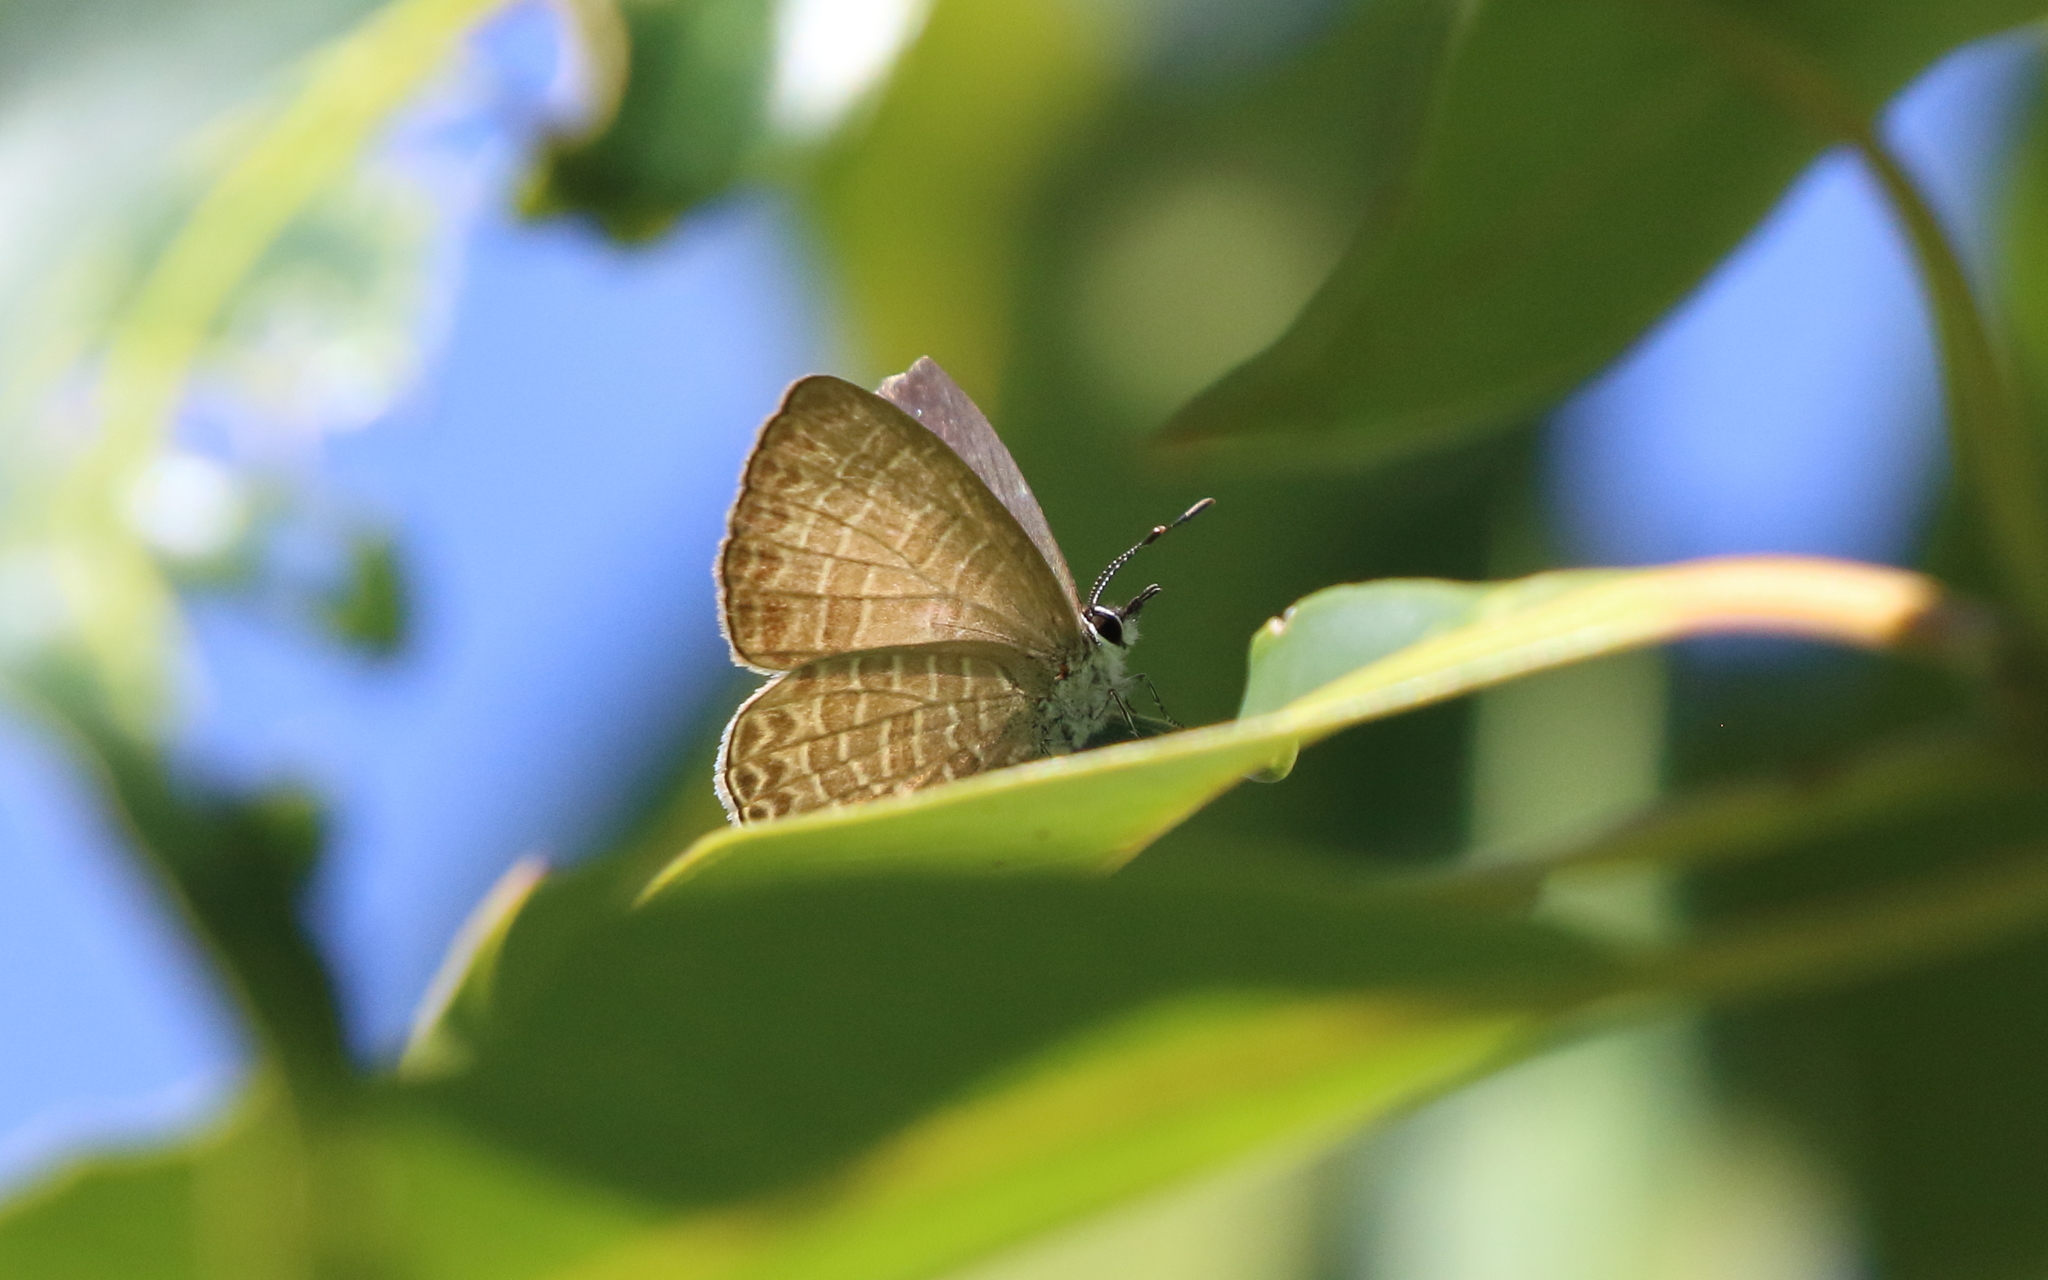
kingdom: Animalia
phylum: Arthropoda
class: Insecta
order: Lepidoptera
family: Lycaenidae
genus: Nacaduba
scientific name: Nacaduba berenice
